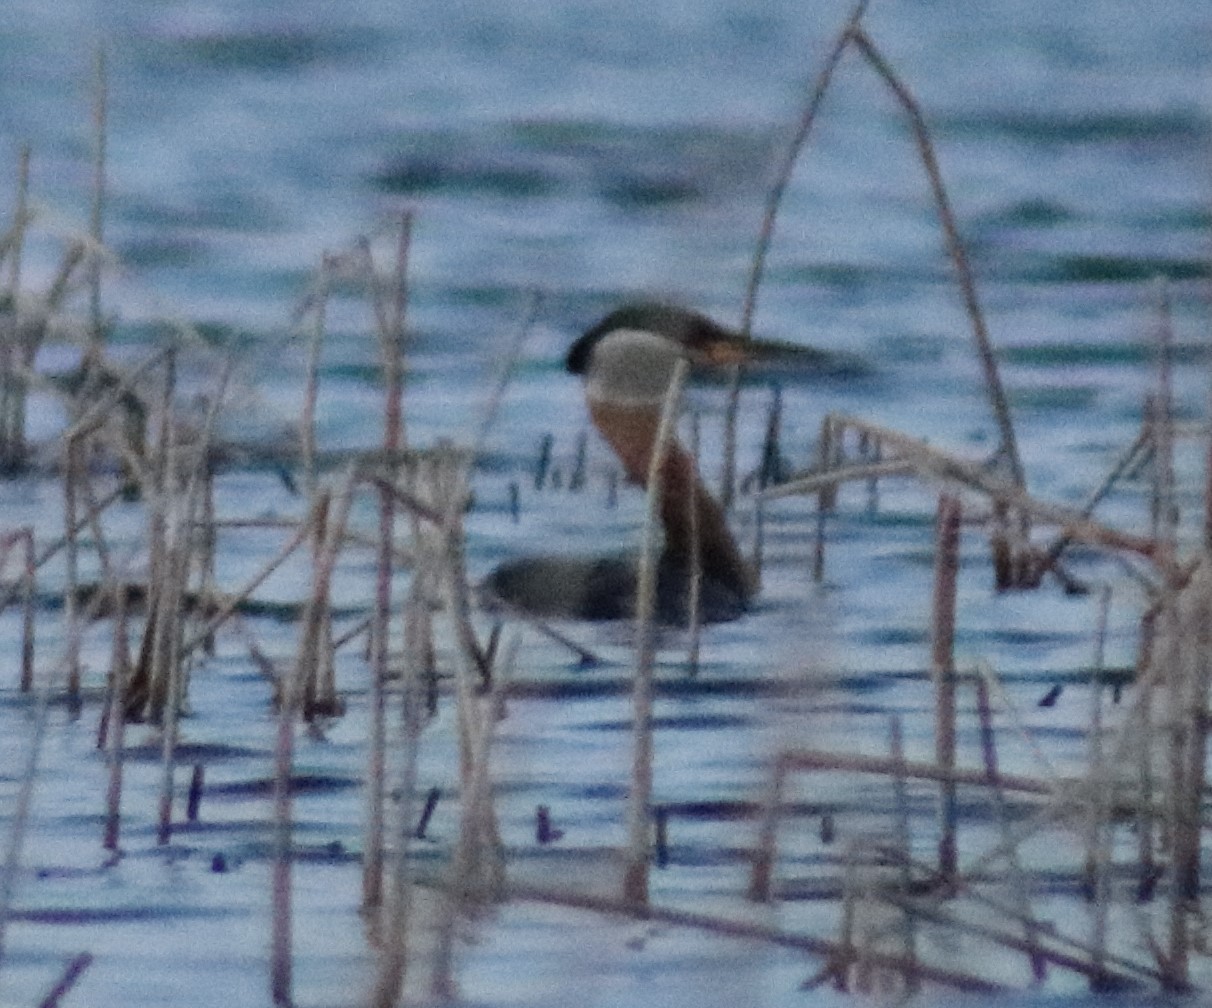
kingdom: Animalia
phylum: Chordata
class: Aves
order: Podicipediformes
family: Podicipedidae
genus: Podiceps
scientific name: Podiceps grisegena
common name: Red-necked grebe
